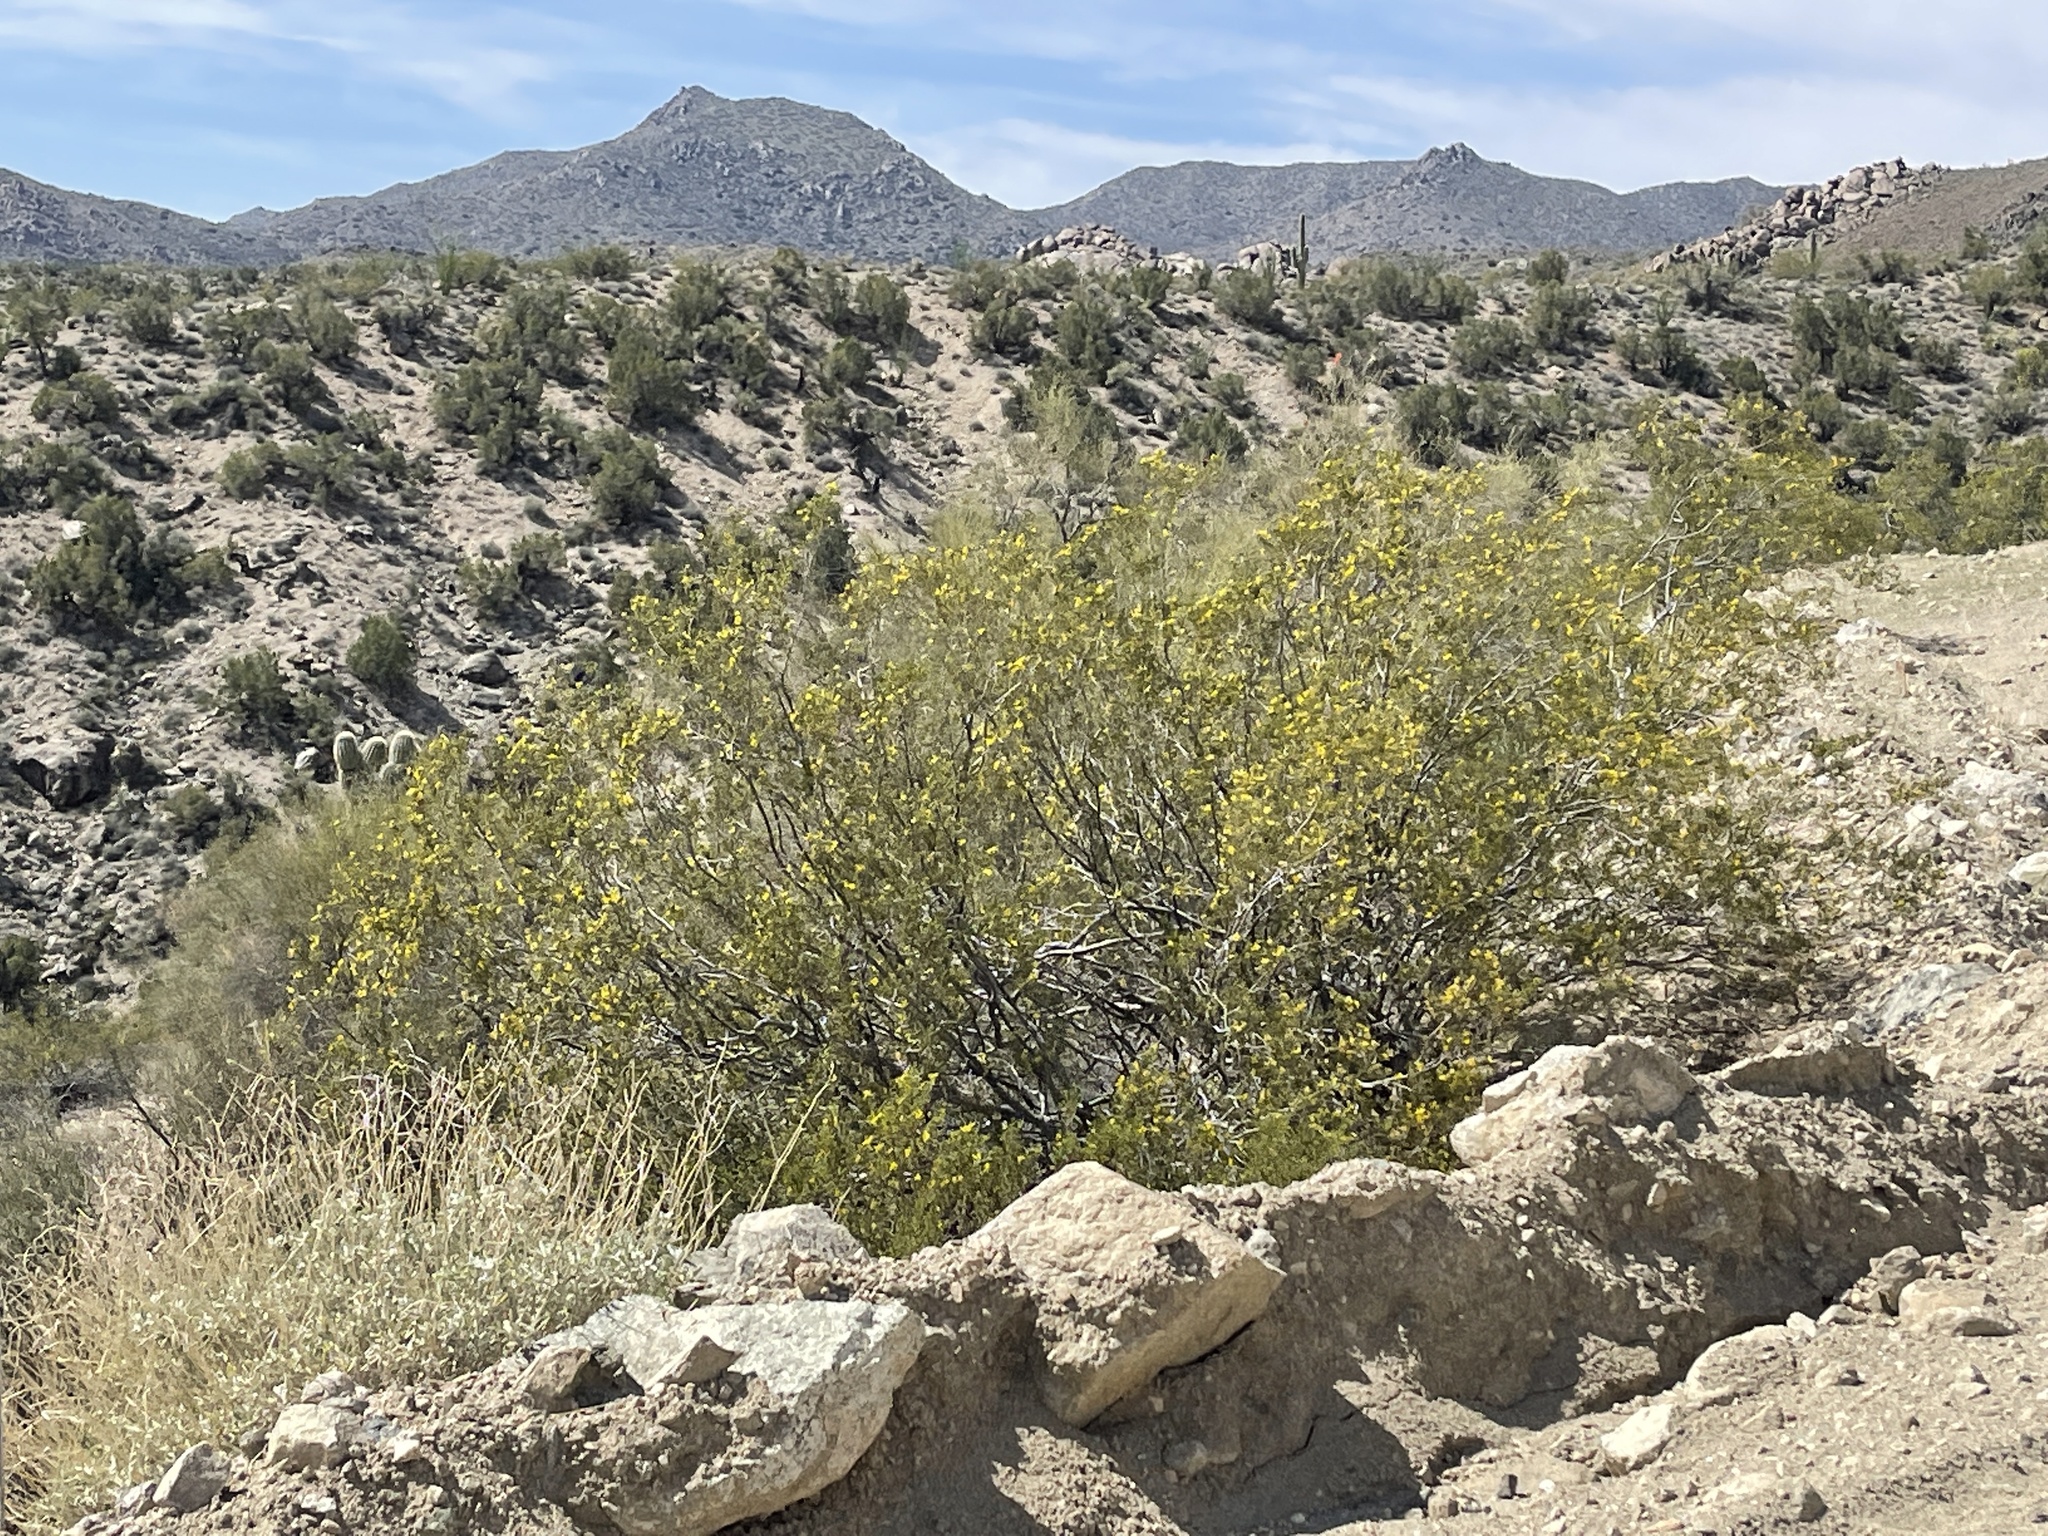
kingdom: Plantae
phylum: Tracheophyta
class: Magnoliopsida
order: Zygophyllales
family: Zygophyllaceae
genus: Larrea
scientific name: Larrea tridentata
